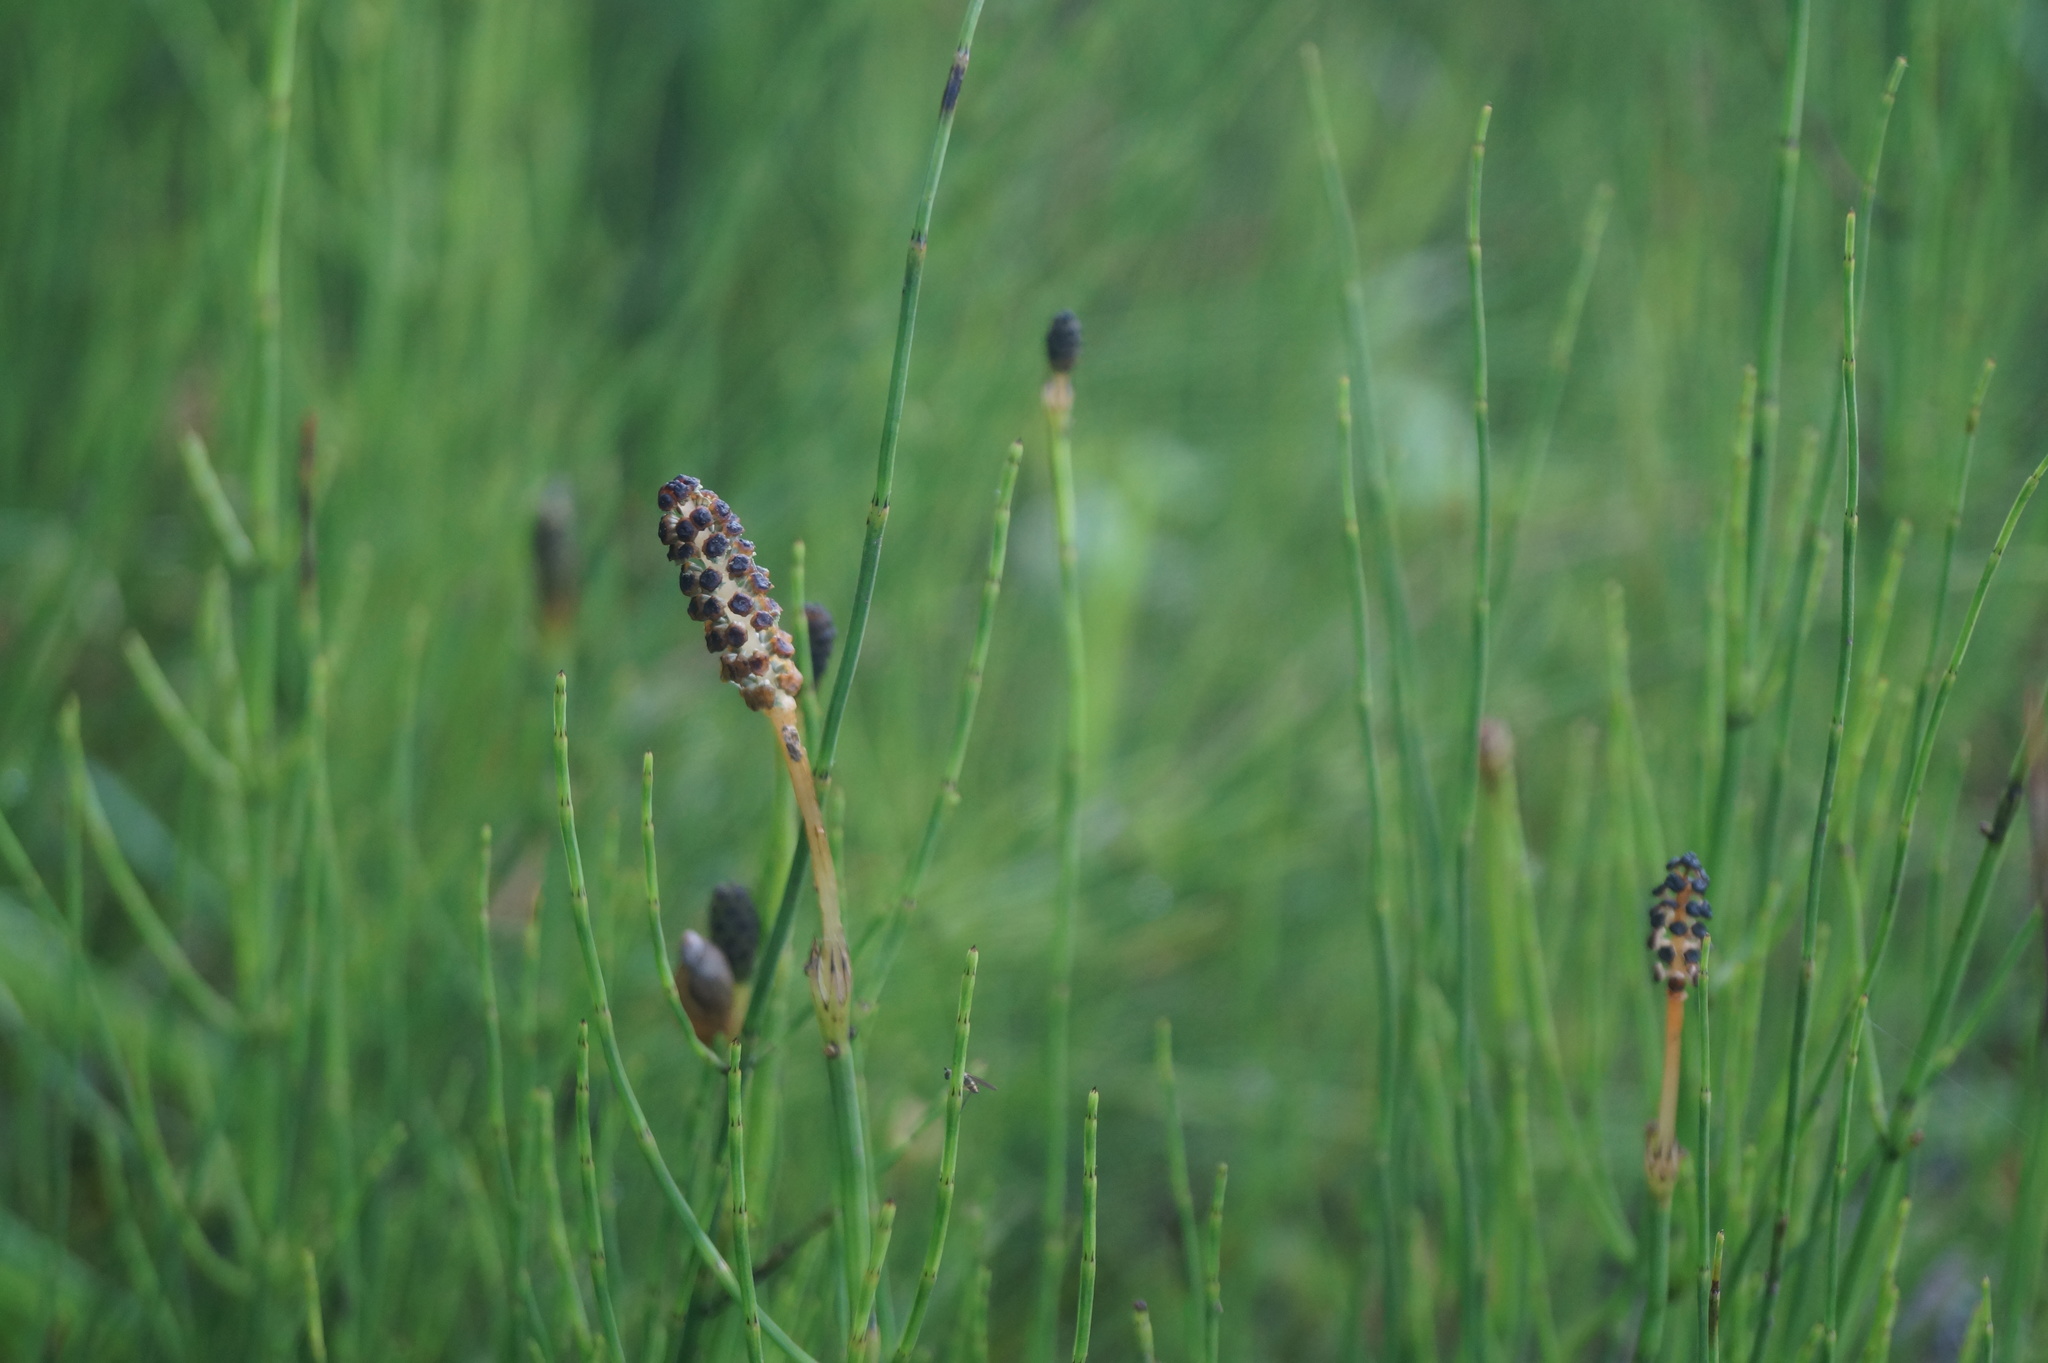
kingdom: Plantae
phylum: Tracheophyta
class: Polypodiopsida
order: Equisetales
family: Equisetaceae
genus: Equisetum
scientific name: Equisetum palustre
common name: Marsh horsetail
